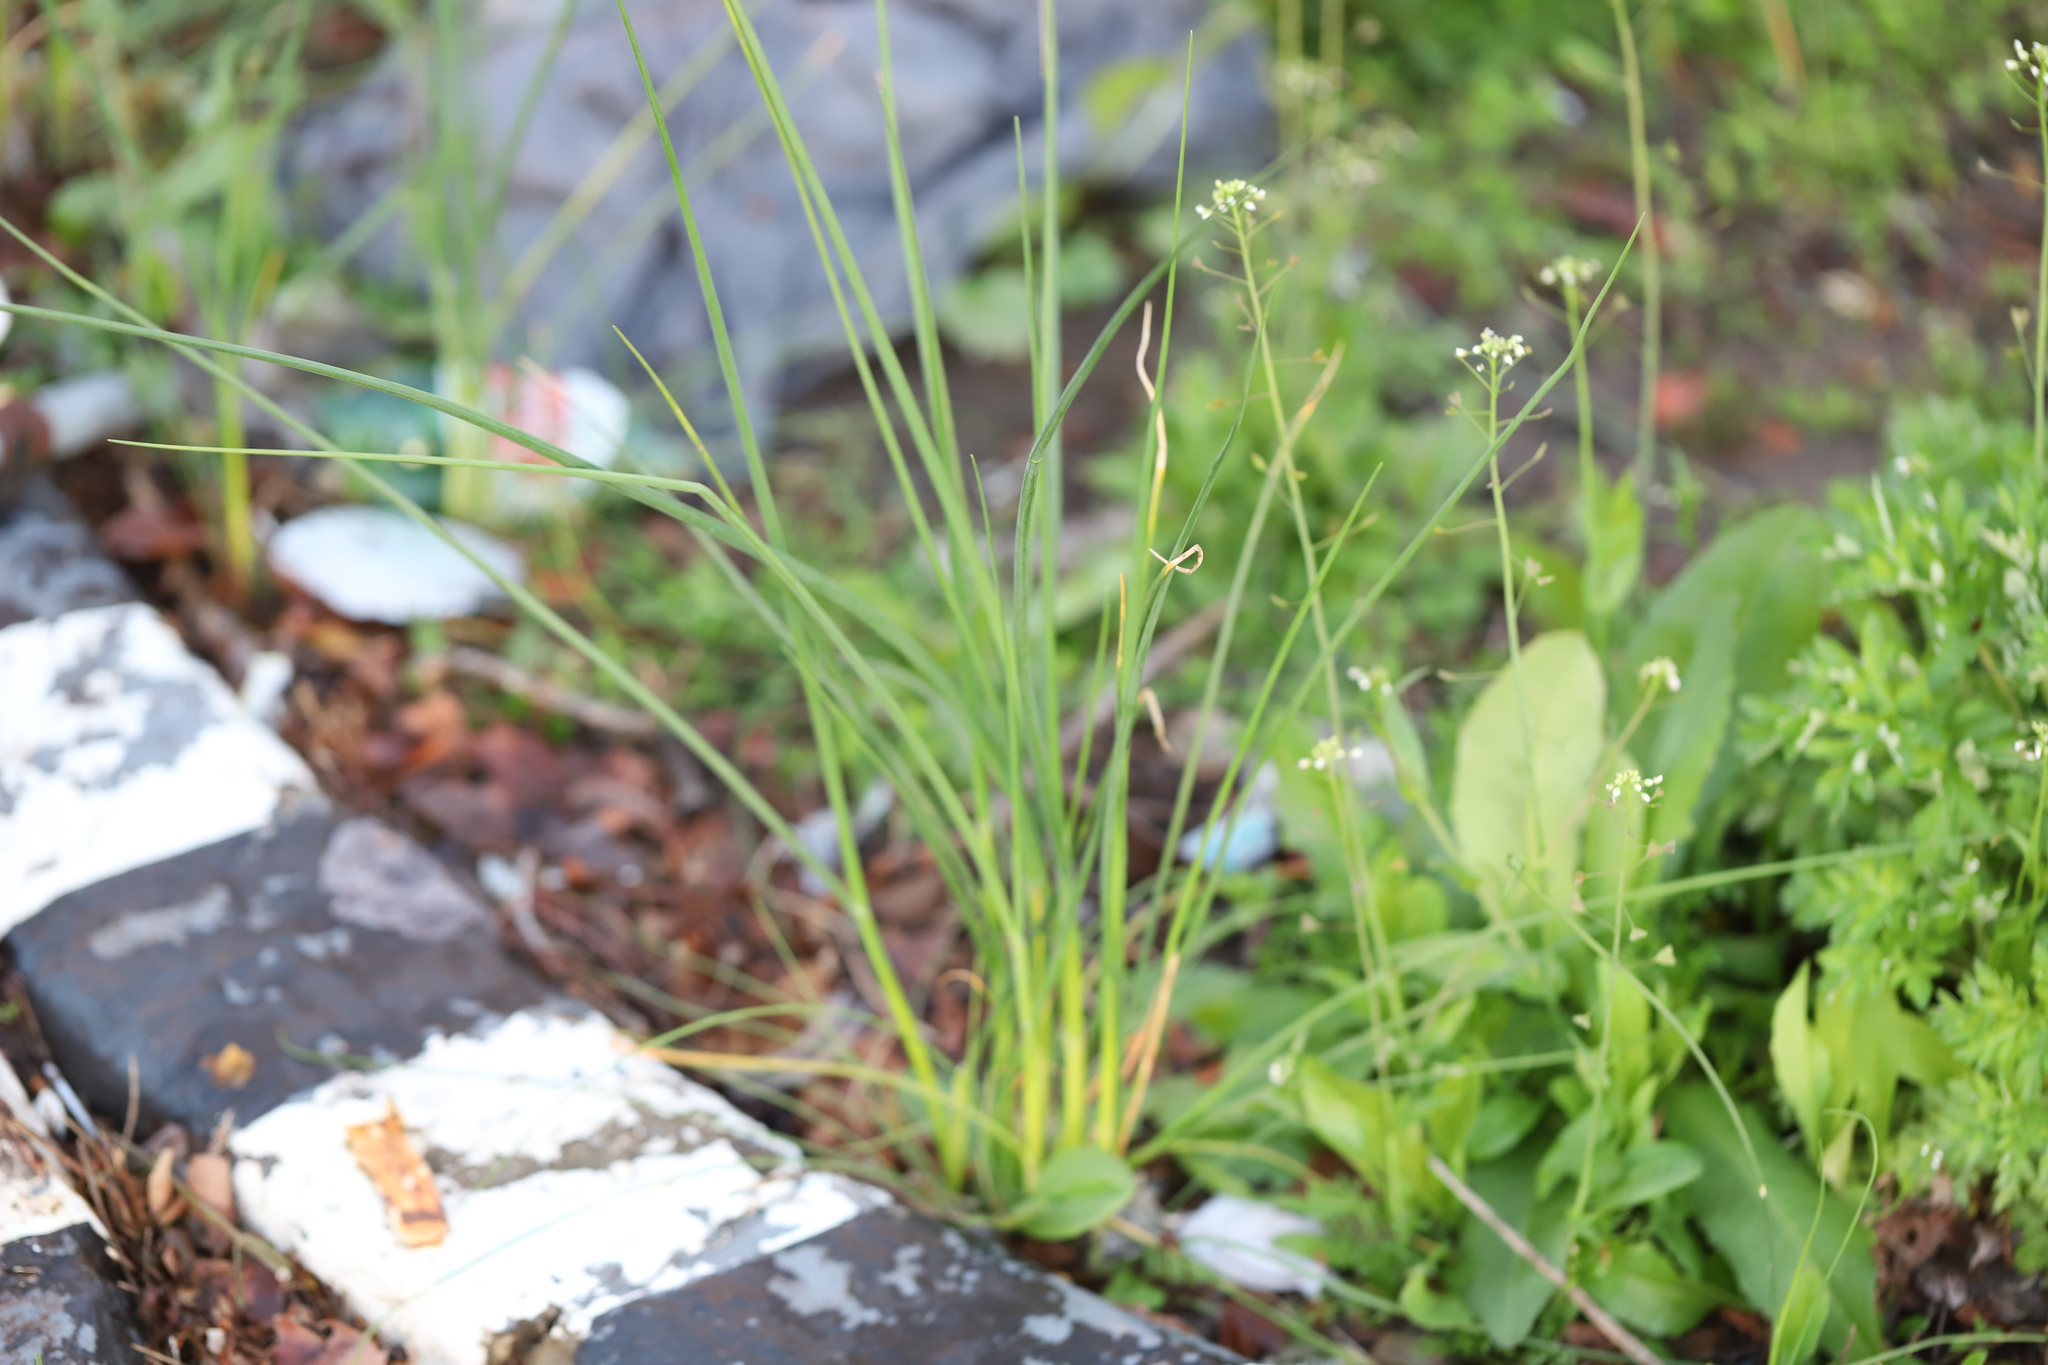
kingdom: Plantae
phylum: Tracheophyta
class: Liliopsida
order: Asparagales
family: Amaryllidaceae
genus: Allium
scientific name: Allium vineale
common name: Crow garlic
